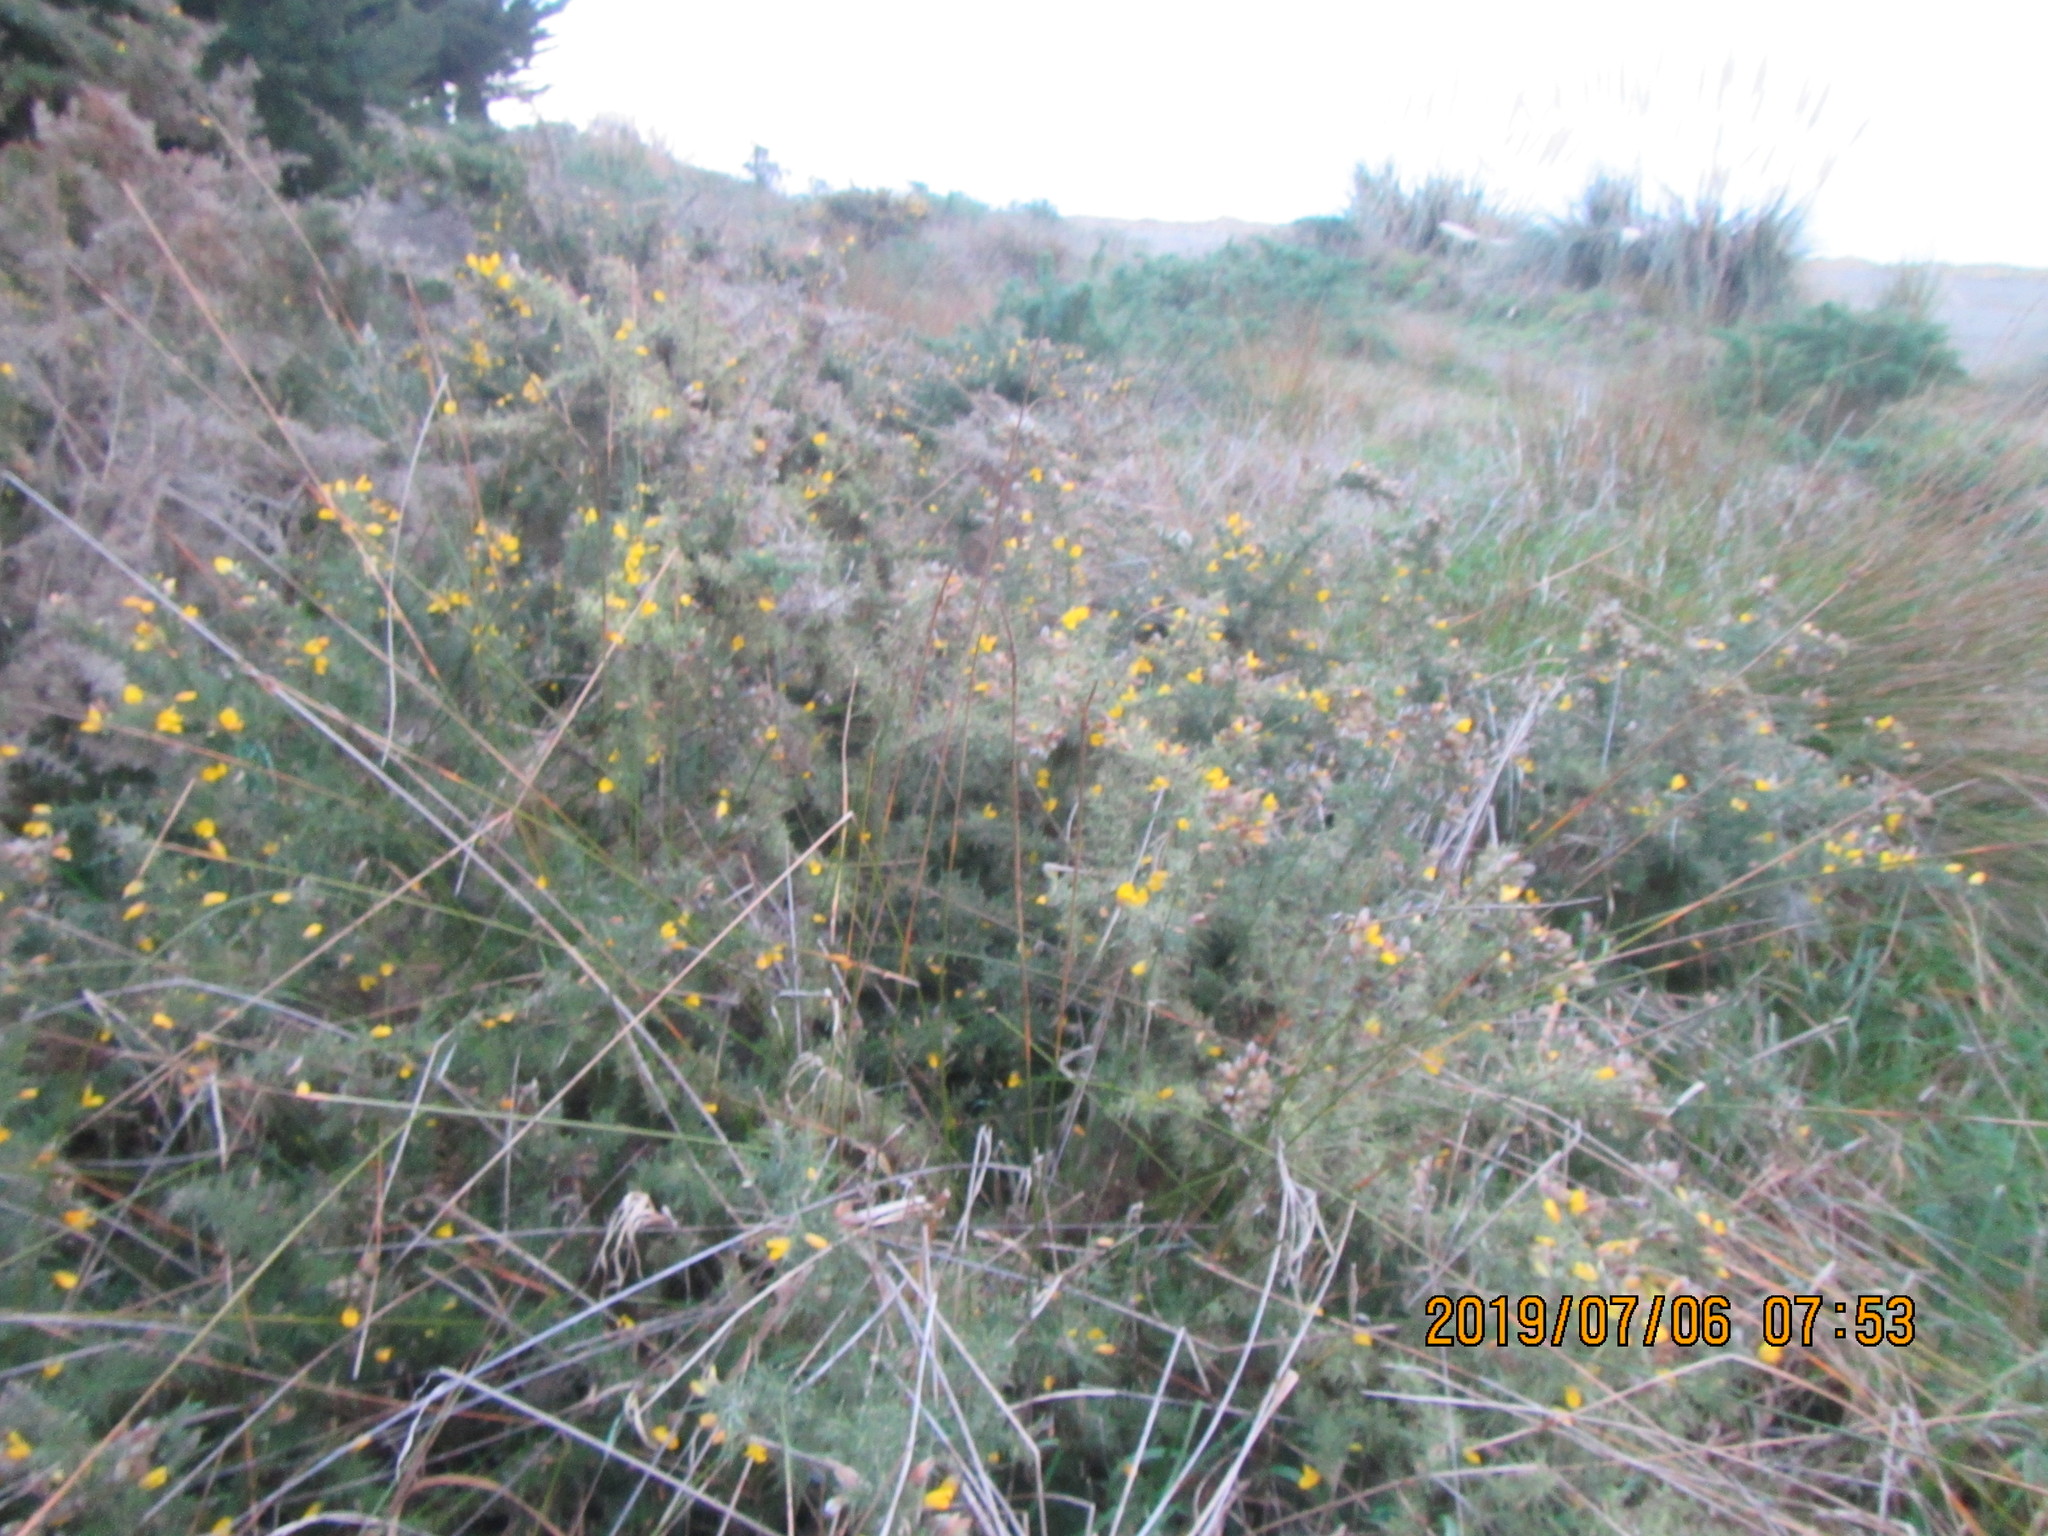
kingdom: Plantae
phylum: Tracheophyta
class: Magnoliopsida
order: Fabales
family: Fabaceae
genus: Ulex
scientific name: Ulex europaeus
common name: Common gorse
